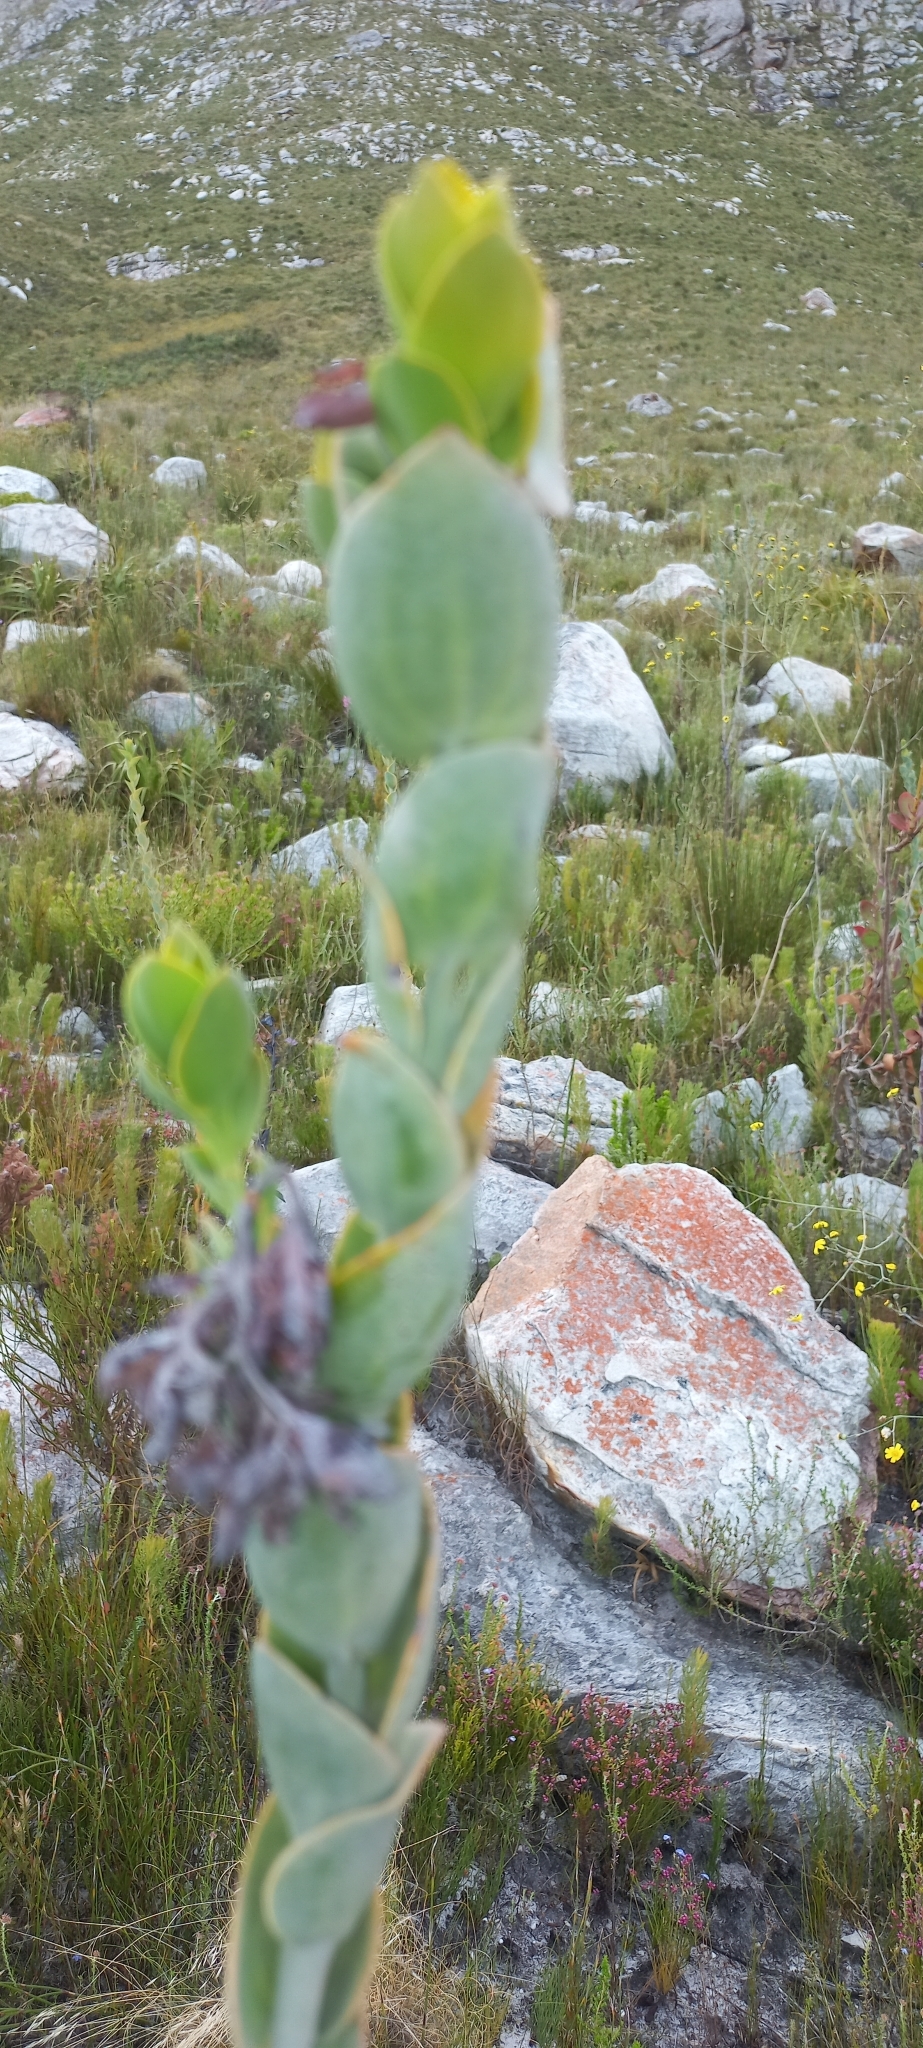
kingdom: Plantae
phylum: Tracheophyta
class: Magnoliopsida
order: Santalales
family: Thesiaceae
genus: Thesium
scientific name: Thesium euphorbioides
